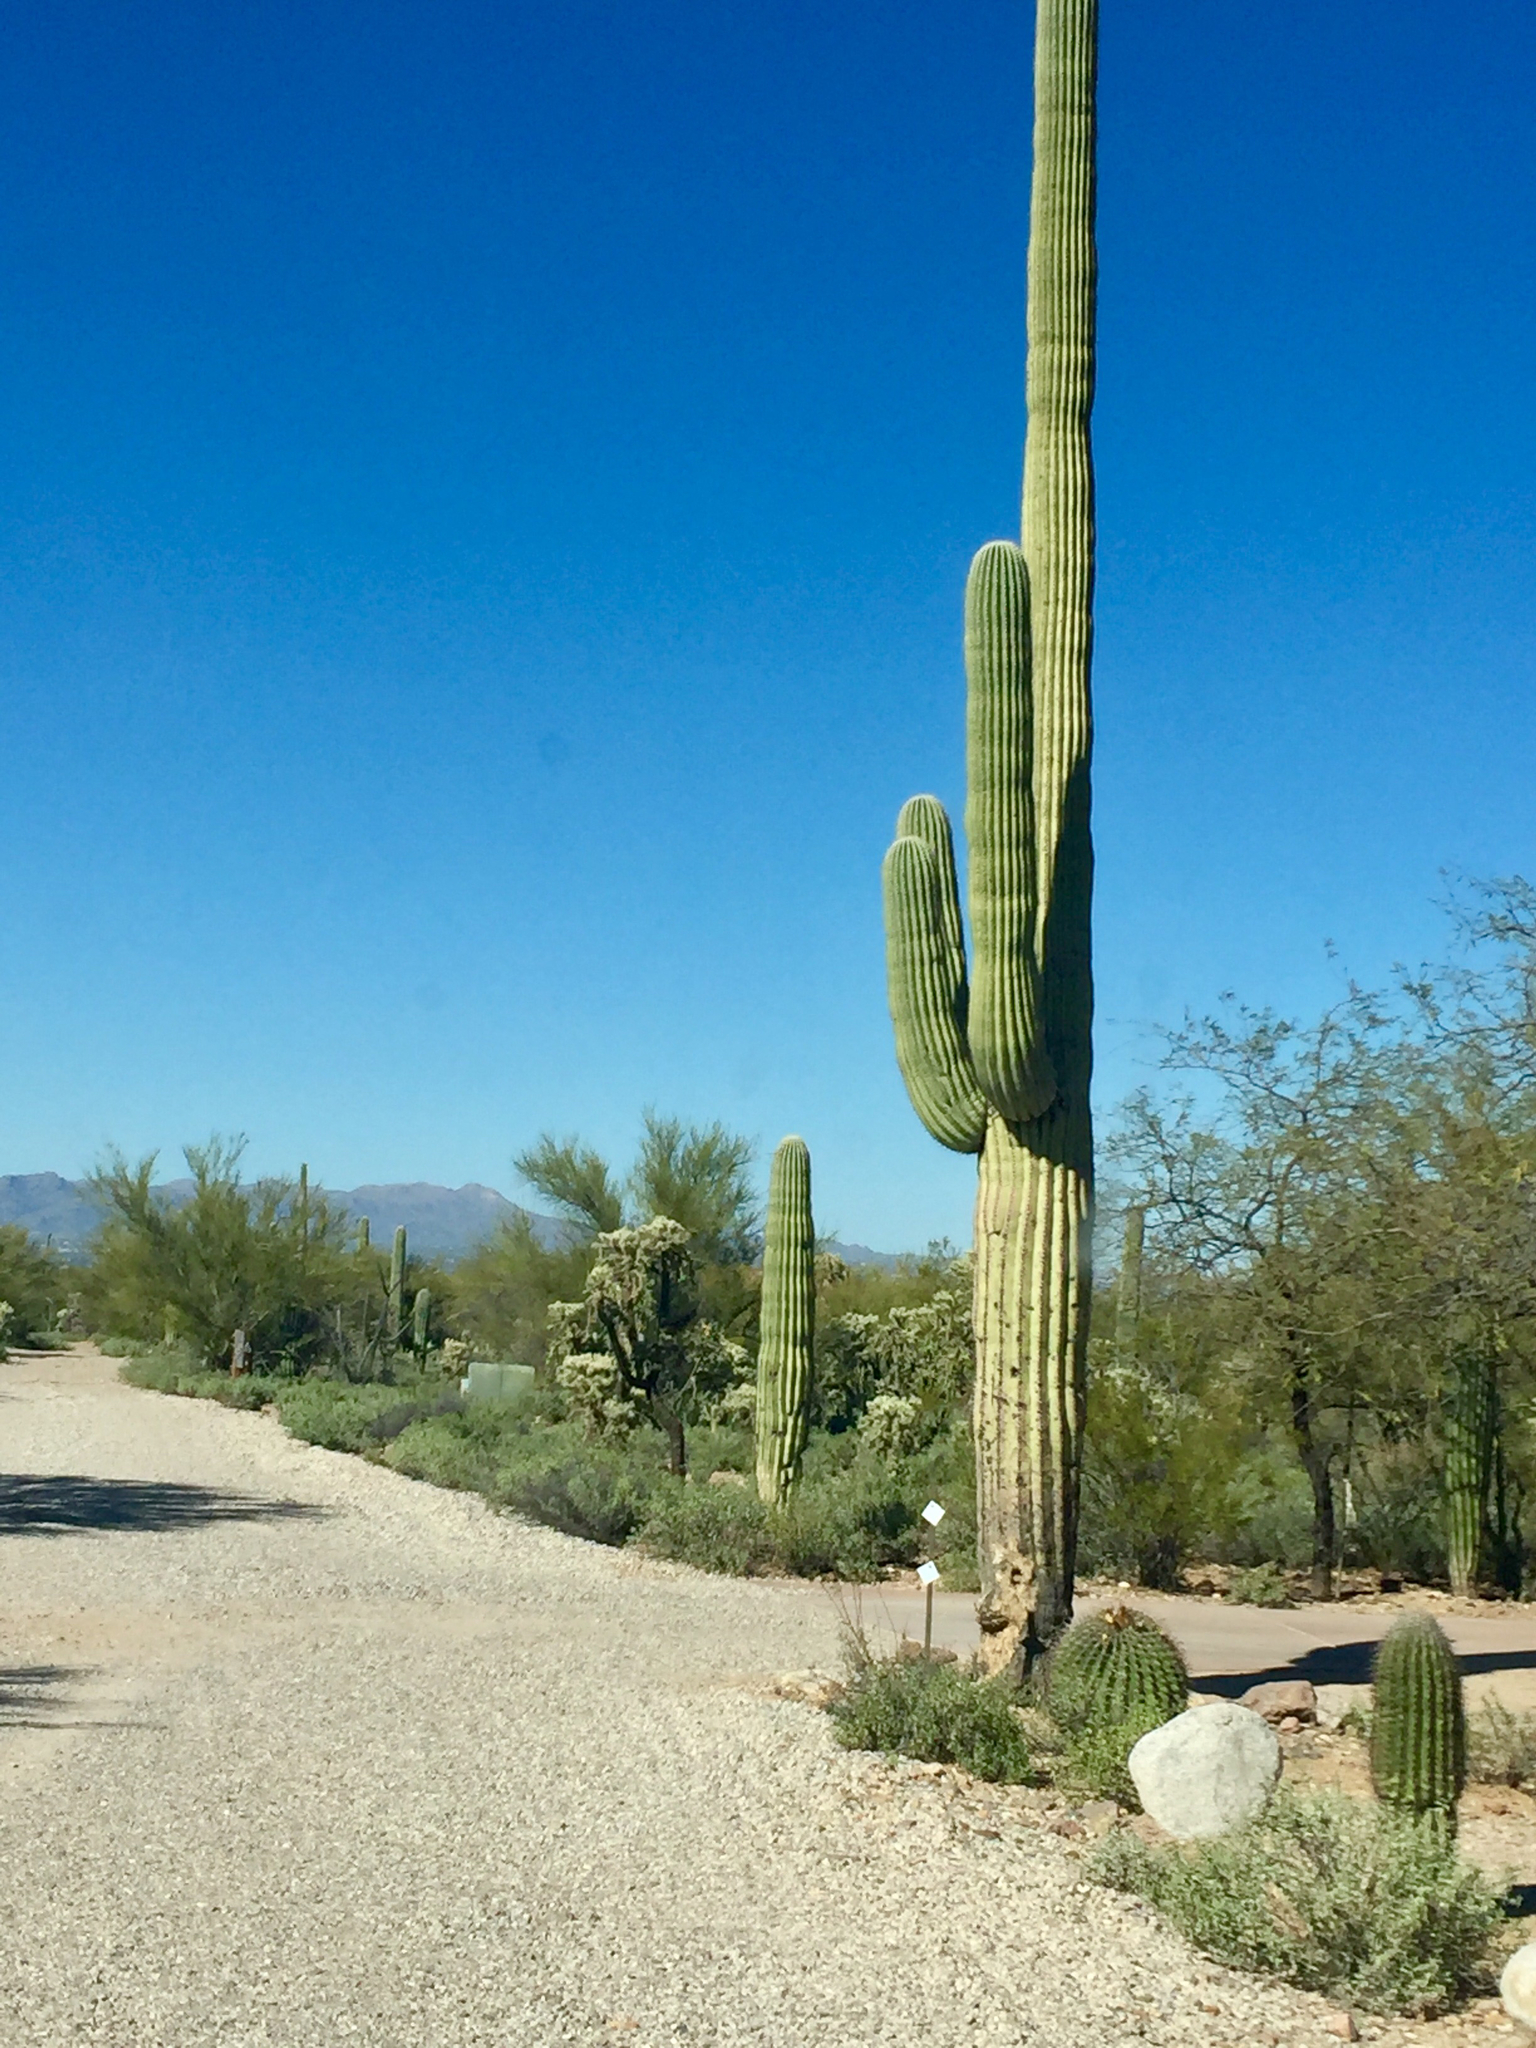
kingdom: Plantae
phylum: Tracheophyta
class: Magnoliopsida
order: Caryophyllales
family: Cactaceae
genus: Carnegiea
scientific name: Carnegiea gigantea
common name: Saguaro
